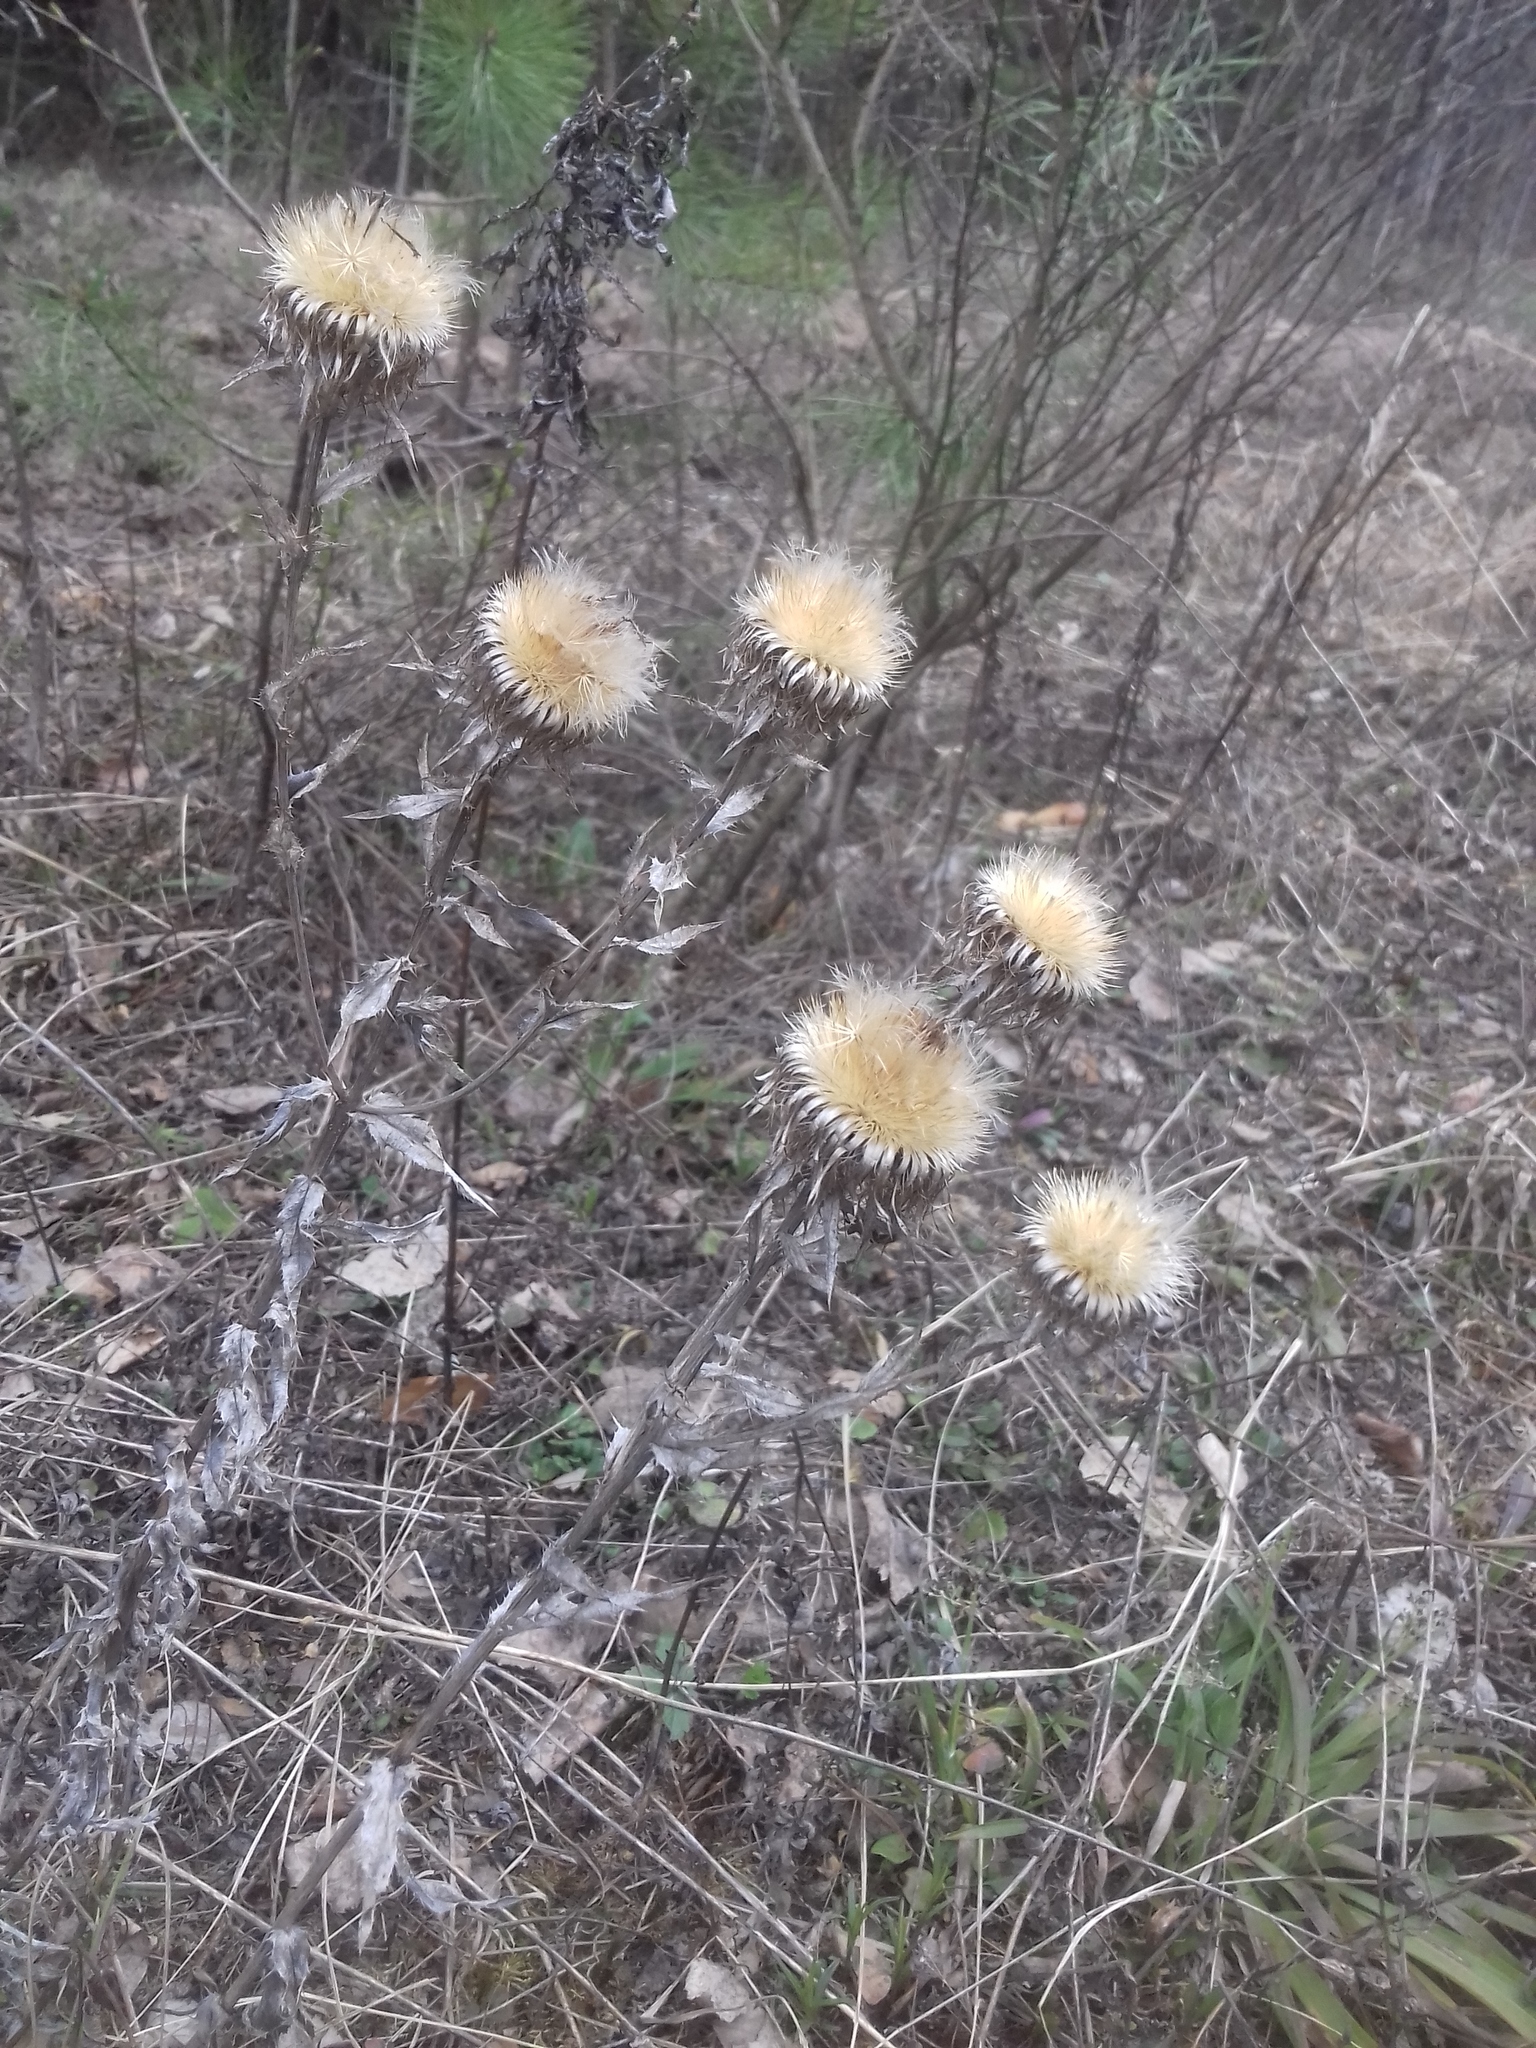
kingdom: Plantae
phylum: Tracheophyta
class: Magnoliopsida
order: Asterales
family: Asteraceae
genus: Carlina
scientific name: Carlina biebersteinii
